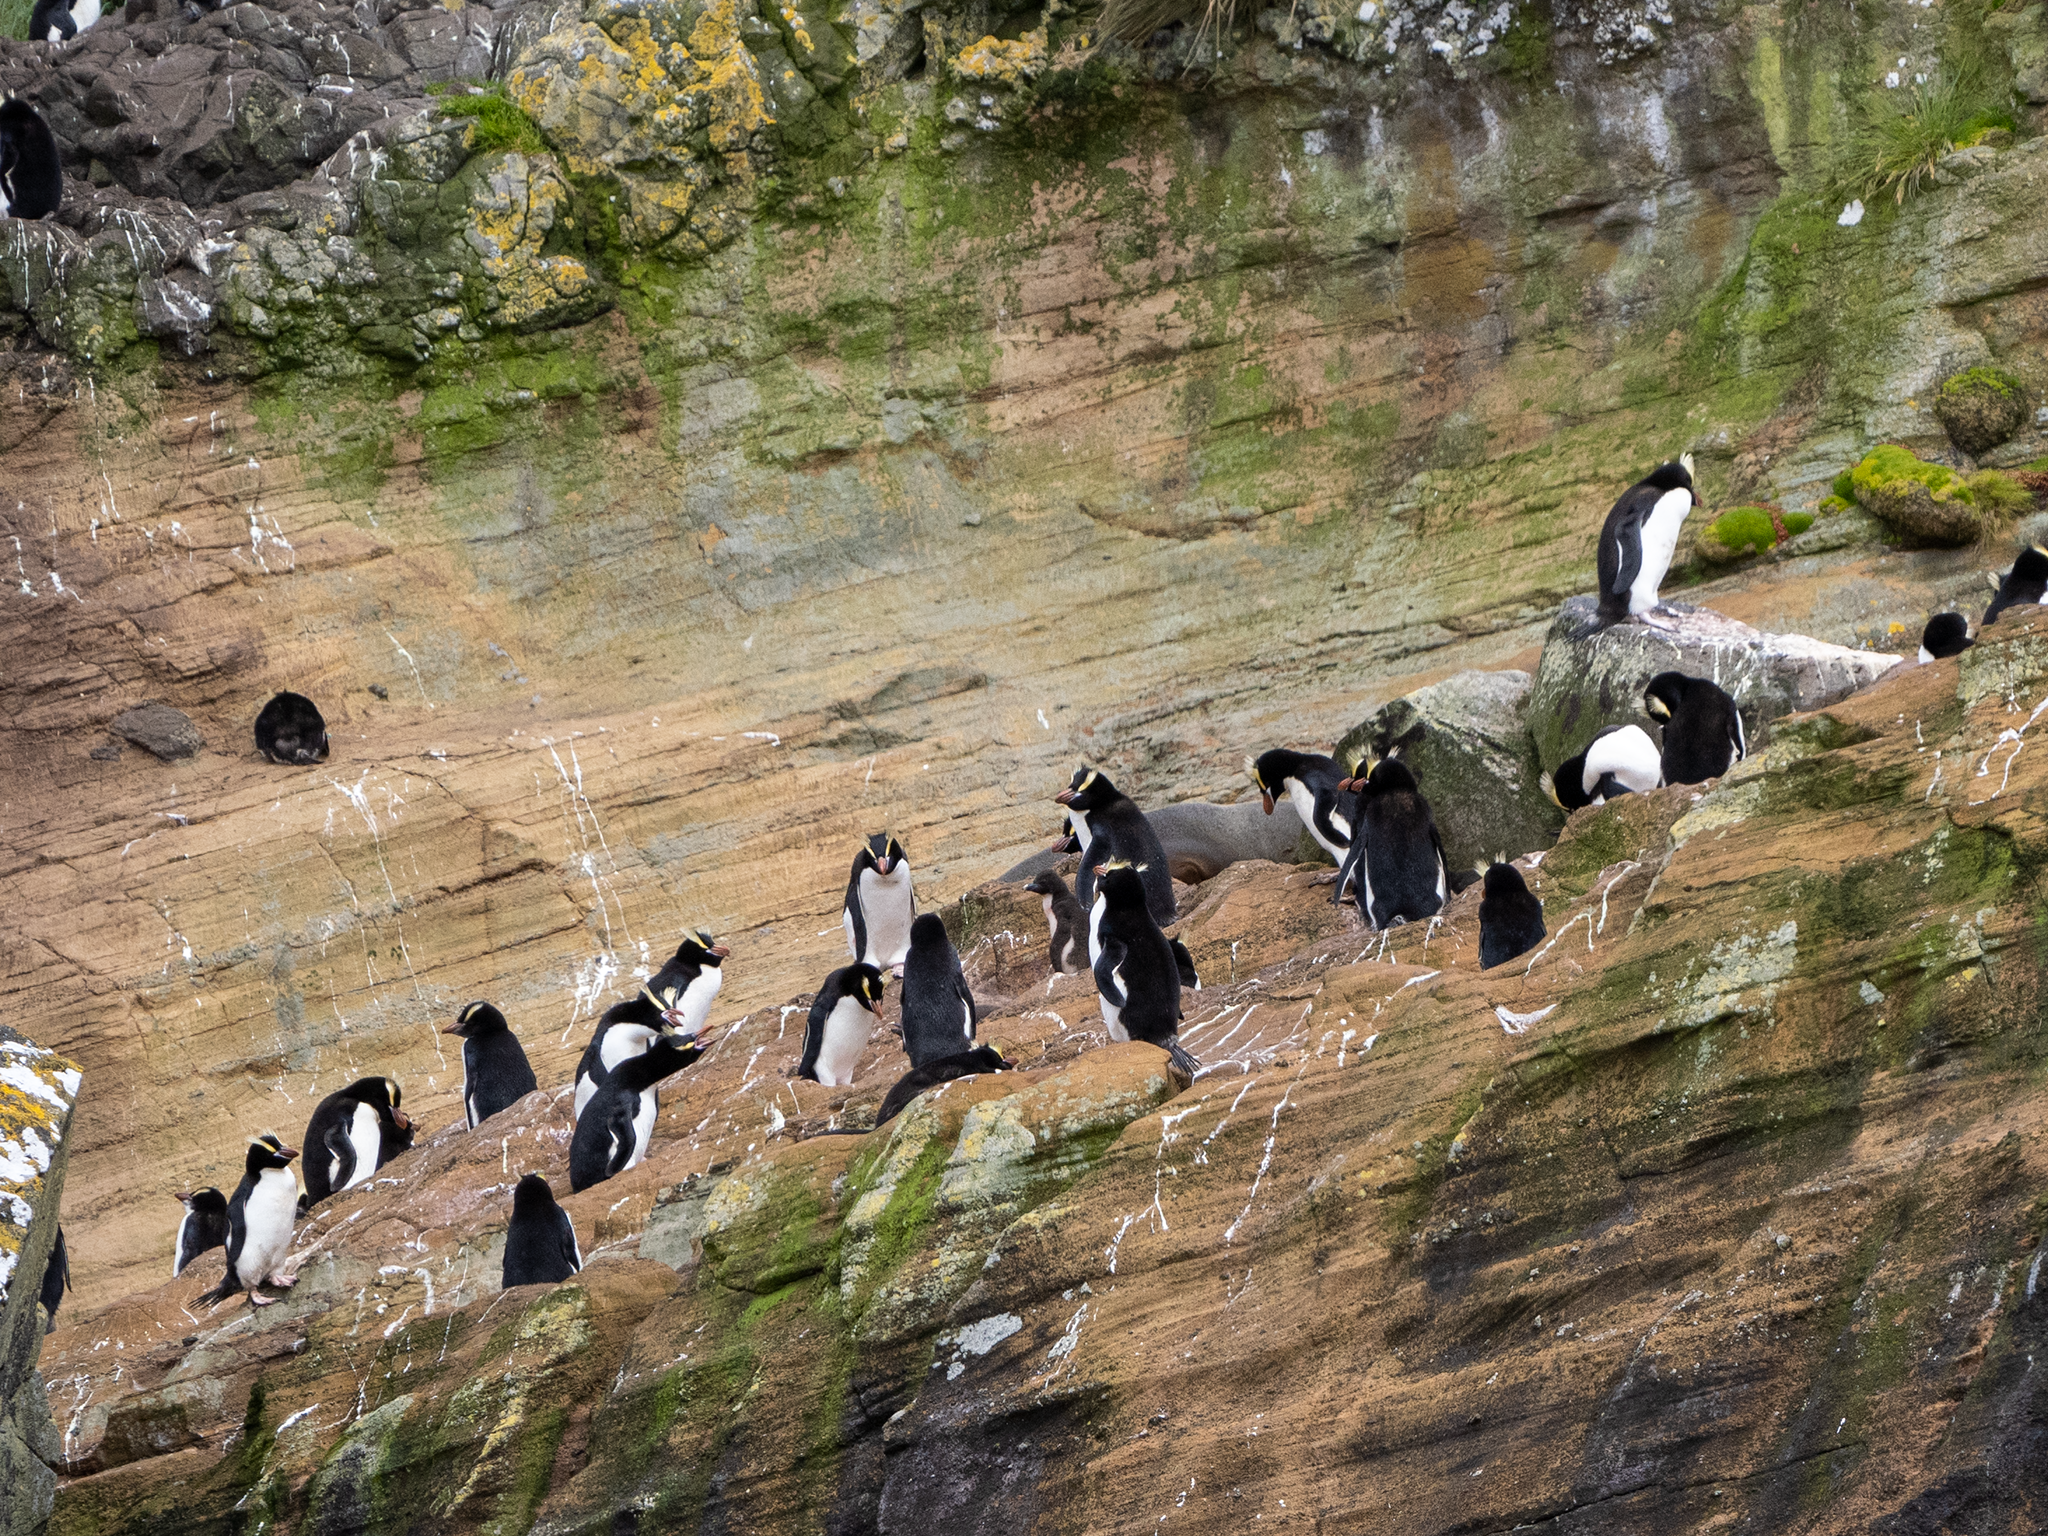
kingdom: Animalia
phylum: Chordata
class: Aves
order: Sphenisciformes
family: Spheniscidae
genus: Eudyptes
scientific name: Eudyptes sclateri
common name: Erect-crested penguin
